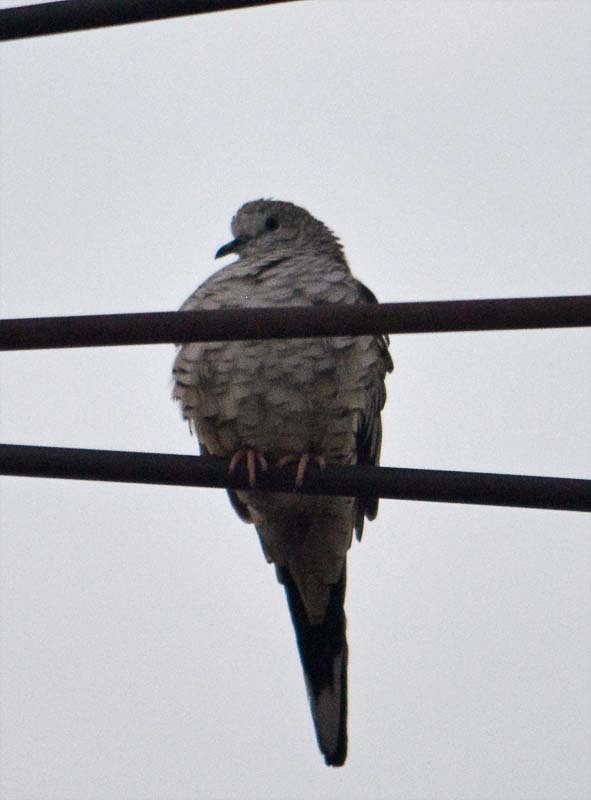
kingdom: Animalia
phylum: Chordata
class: Aves
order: Columbiformes
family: Columbidae
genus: Columbina
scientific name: Columbina inca
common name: Inca dove
